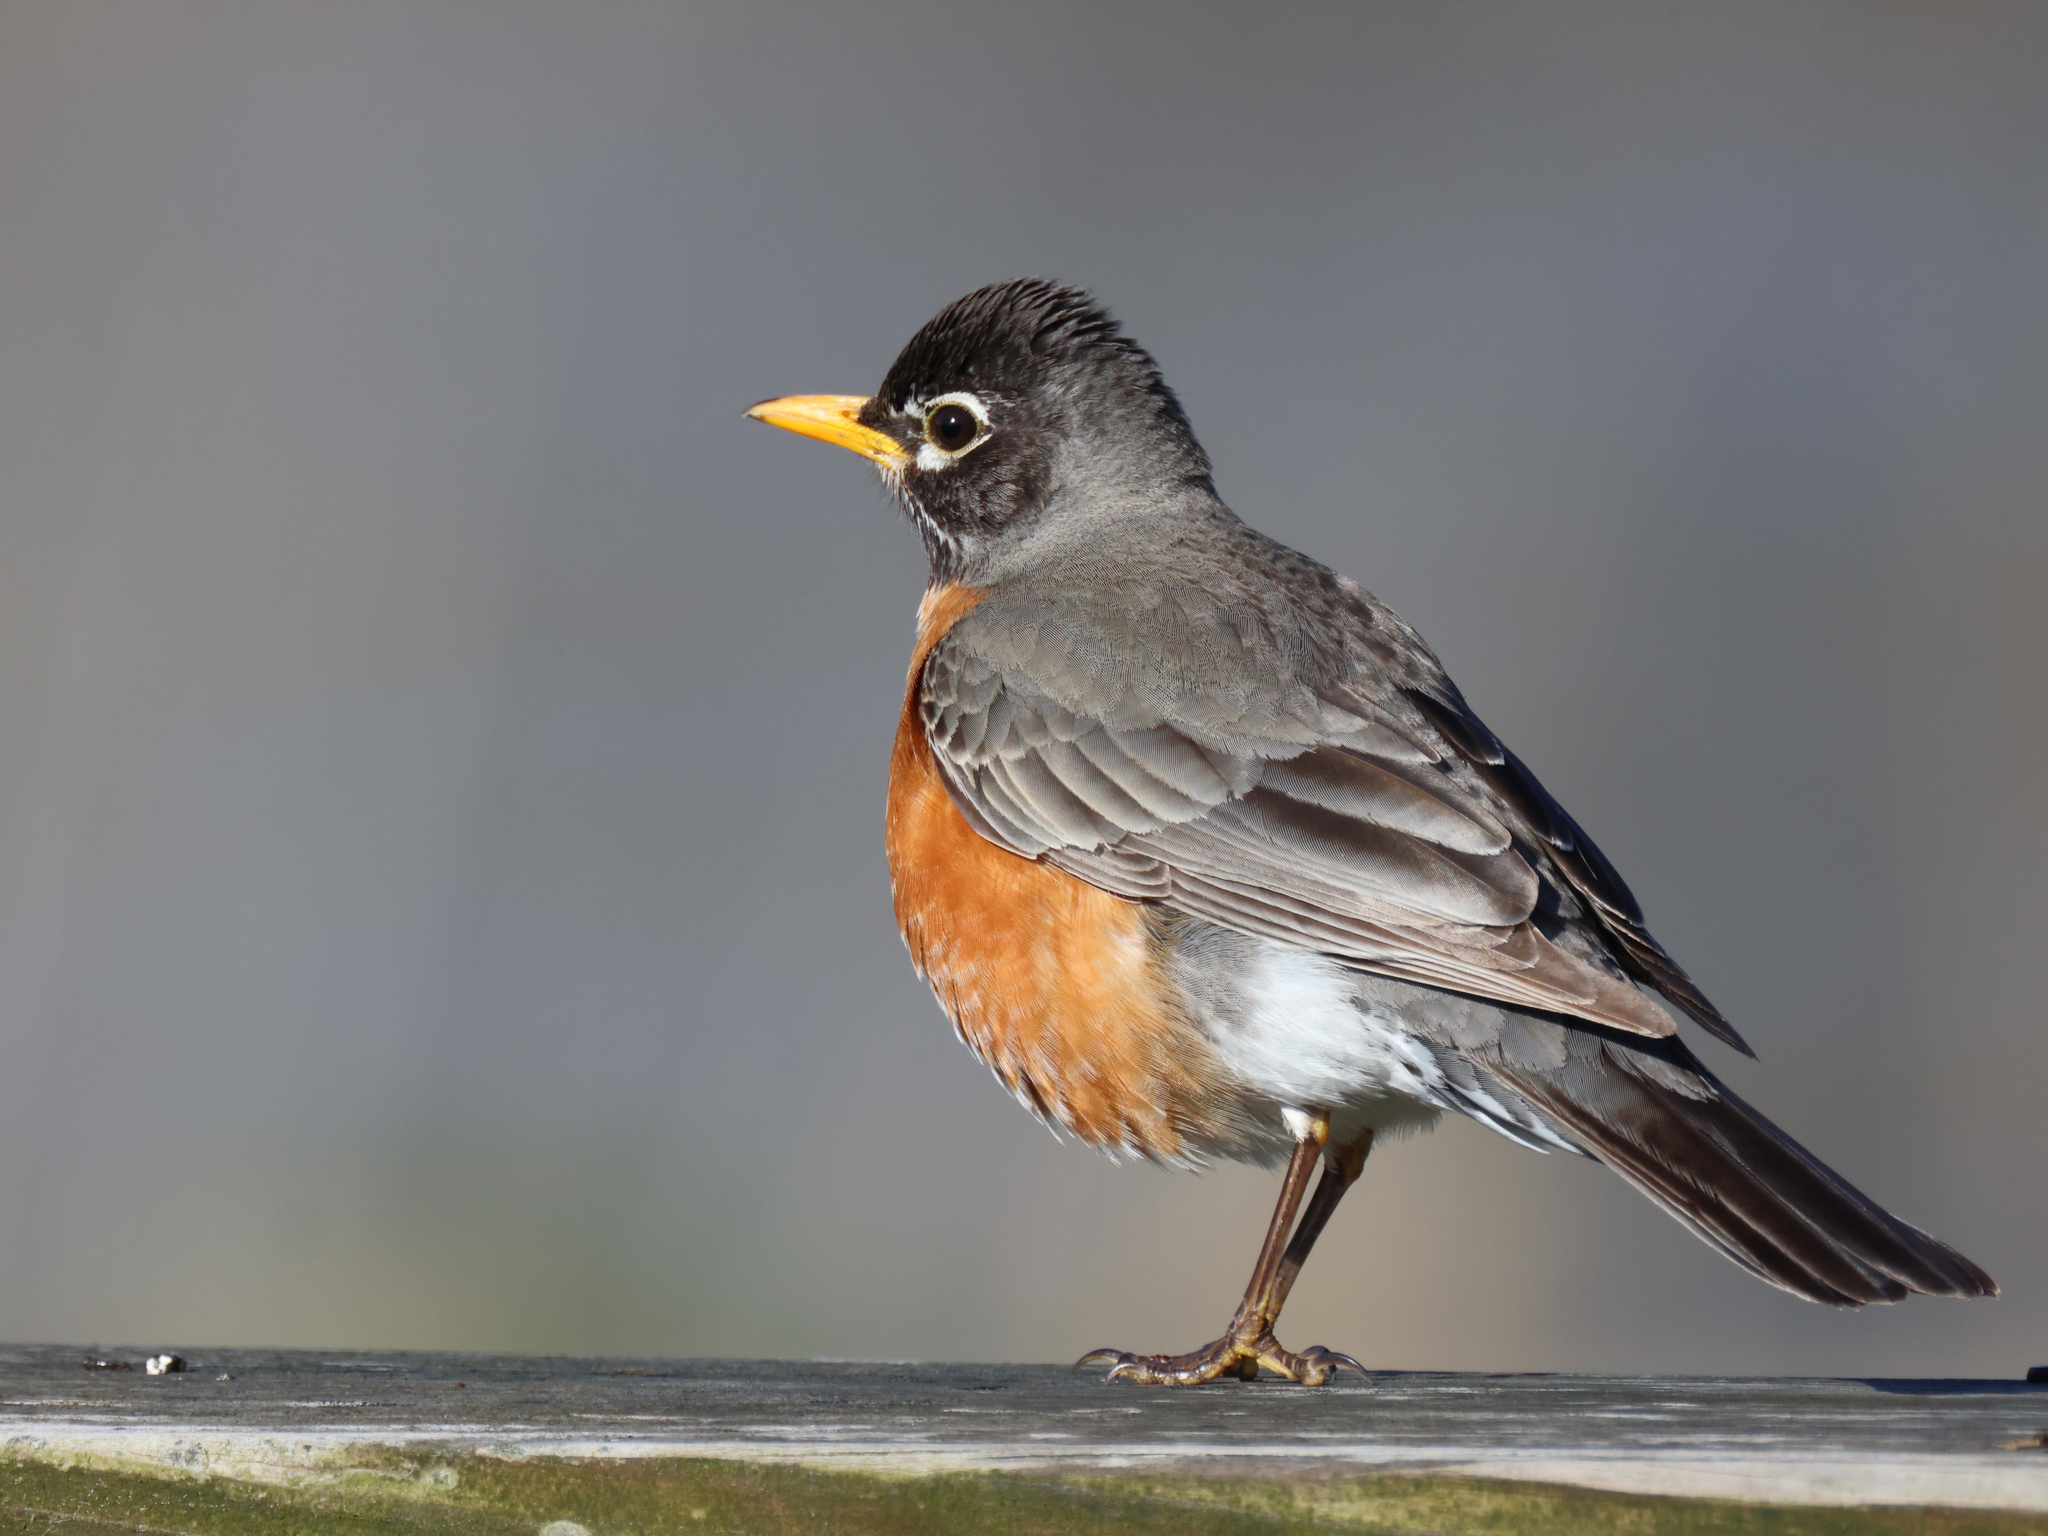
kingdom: Animalia
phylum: Chordata
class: Aves
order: Passeriformes
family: Turdidae
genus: Turdus
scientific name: Turdus migratorius
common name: American robin
